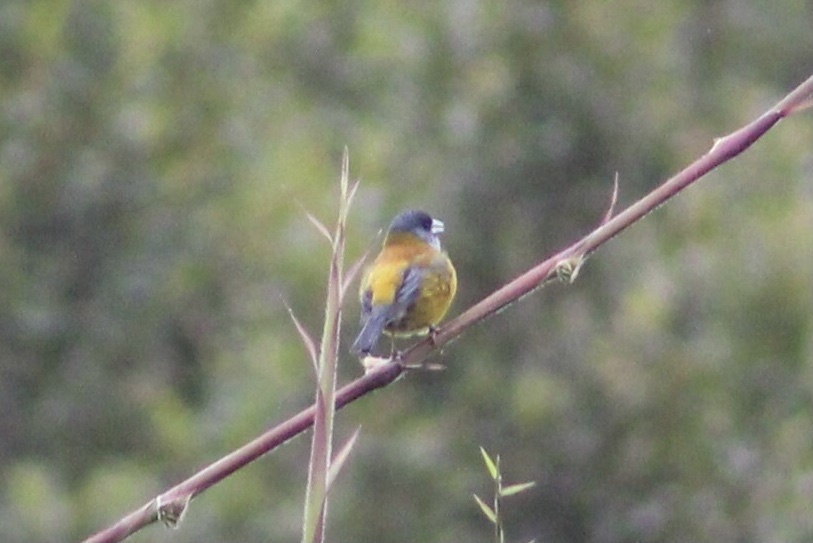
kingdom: Animalia
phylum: Chordata
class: Aves
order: Passeriformes
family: Thraupidae
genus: Phrygilus
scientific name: Phrygilus patagonicus
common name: Patagonian sierra finch
